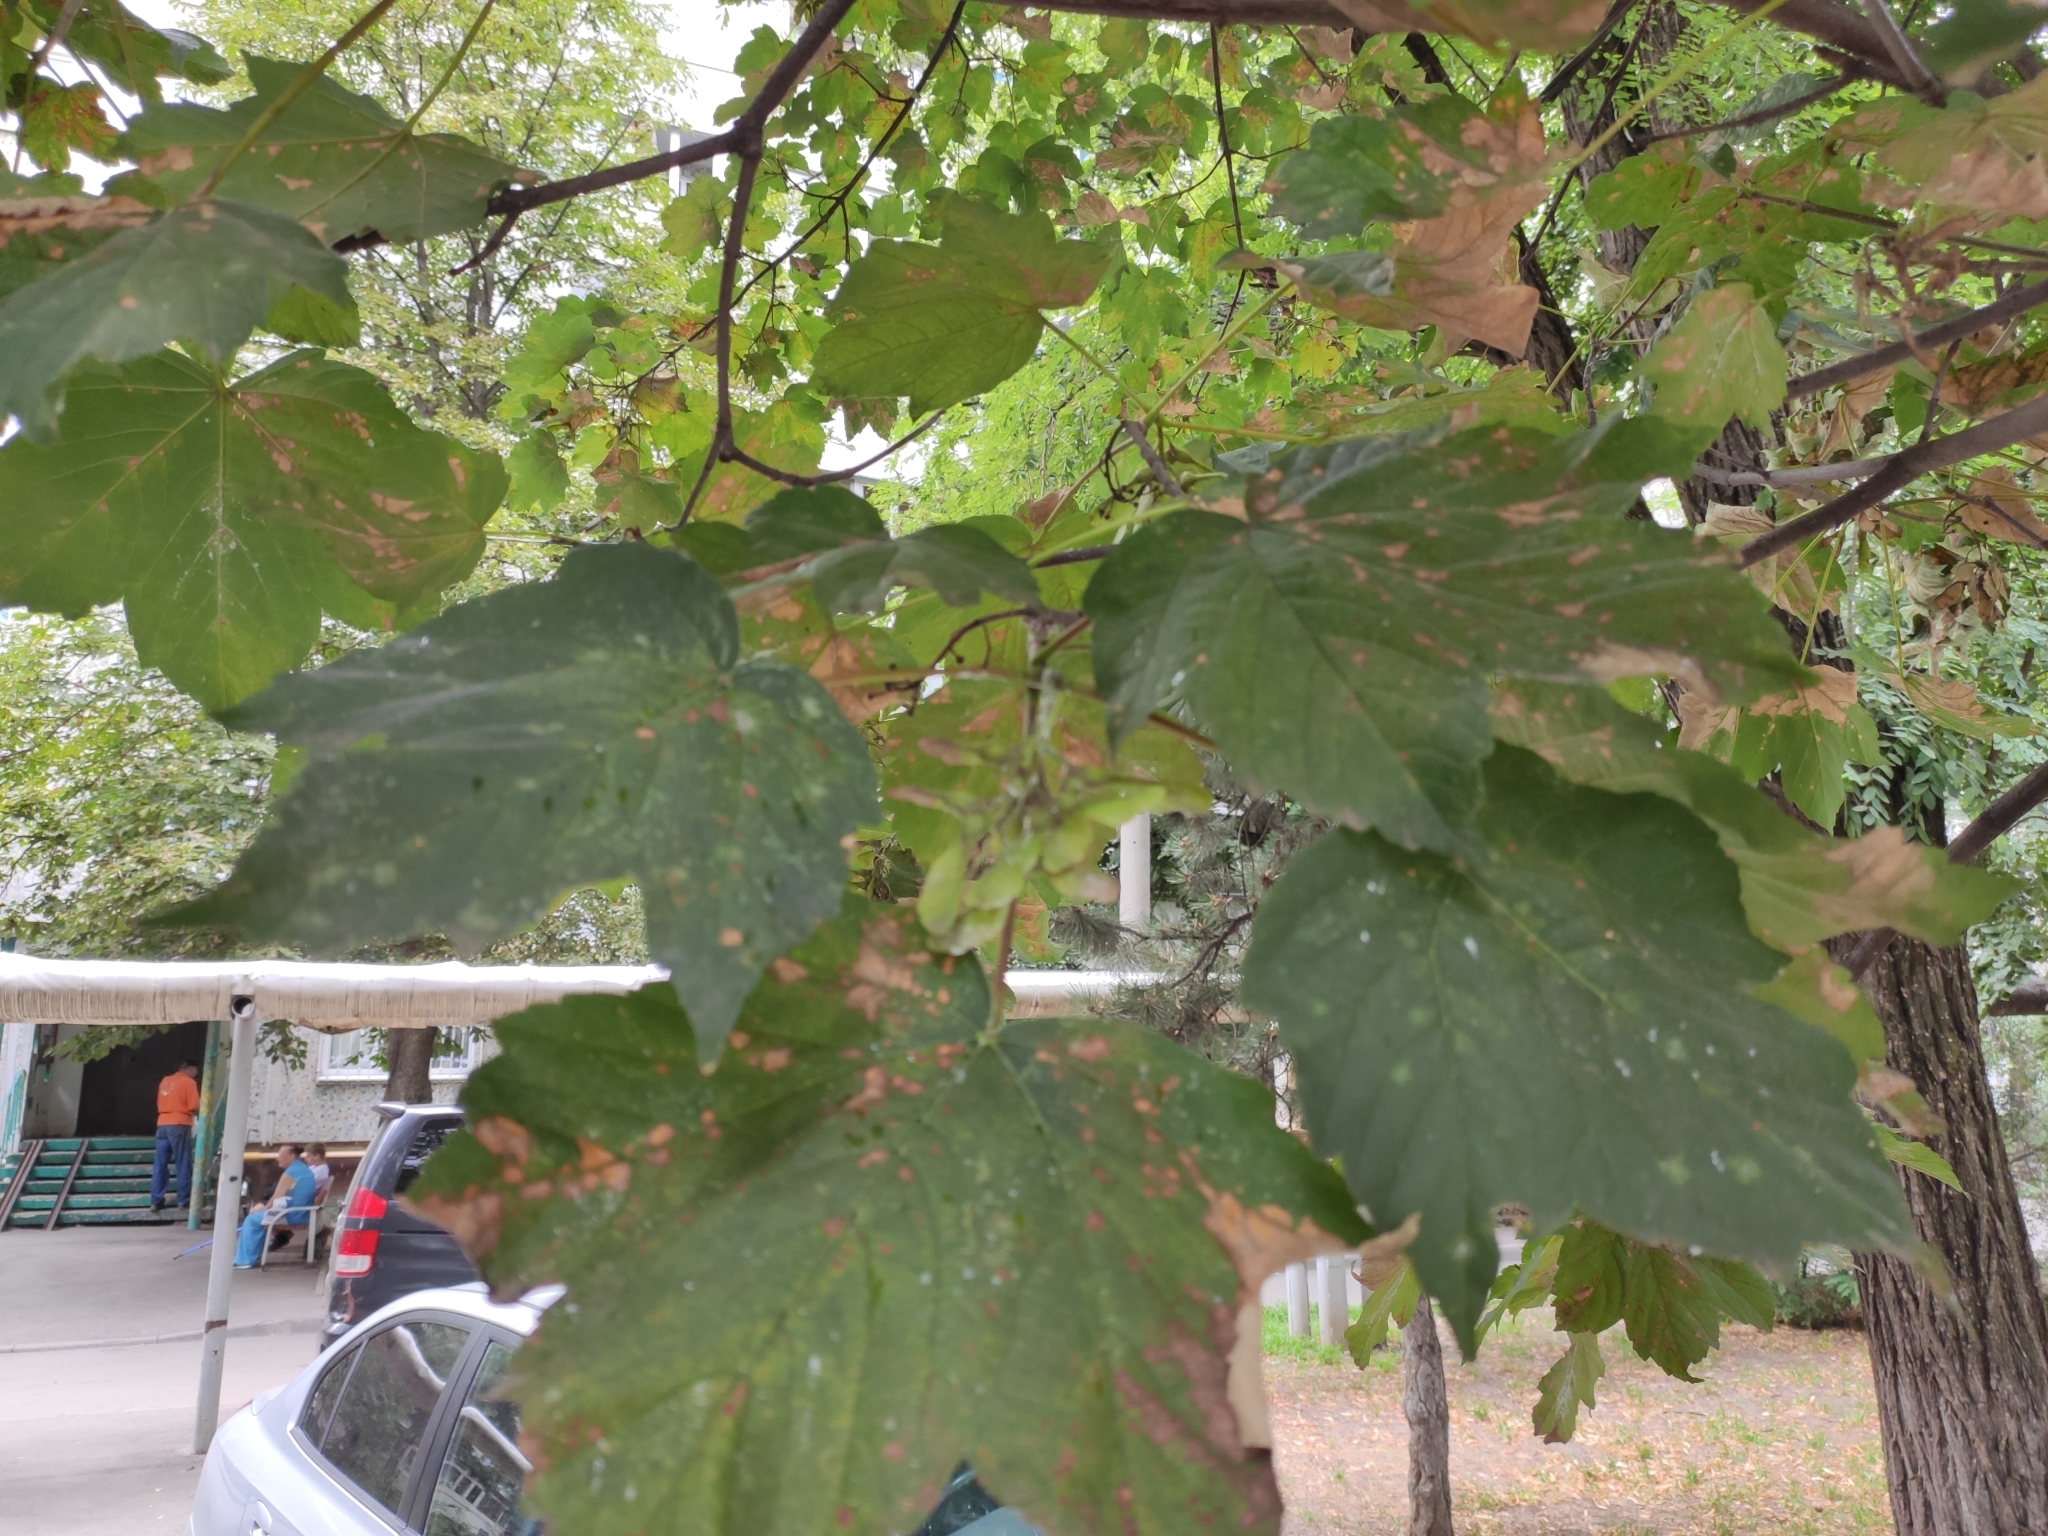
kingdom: Plantae
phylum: Tracheophyta
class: Magnoliopsida
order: Sapindales
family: Sapindaceae
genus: Acer
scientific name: Acer pseudoplatanus
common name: Sycamore
